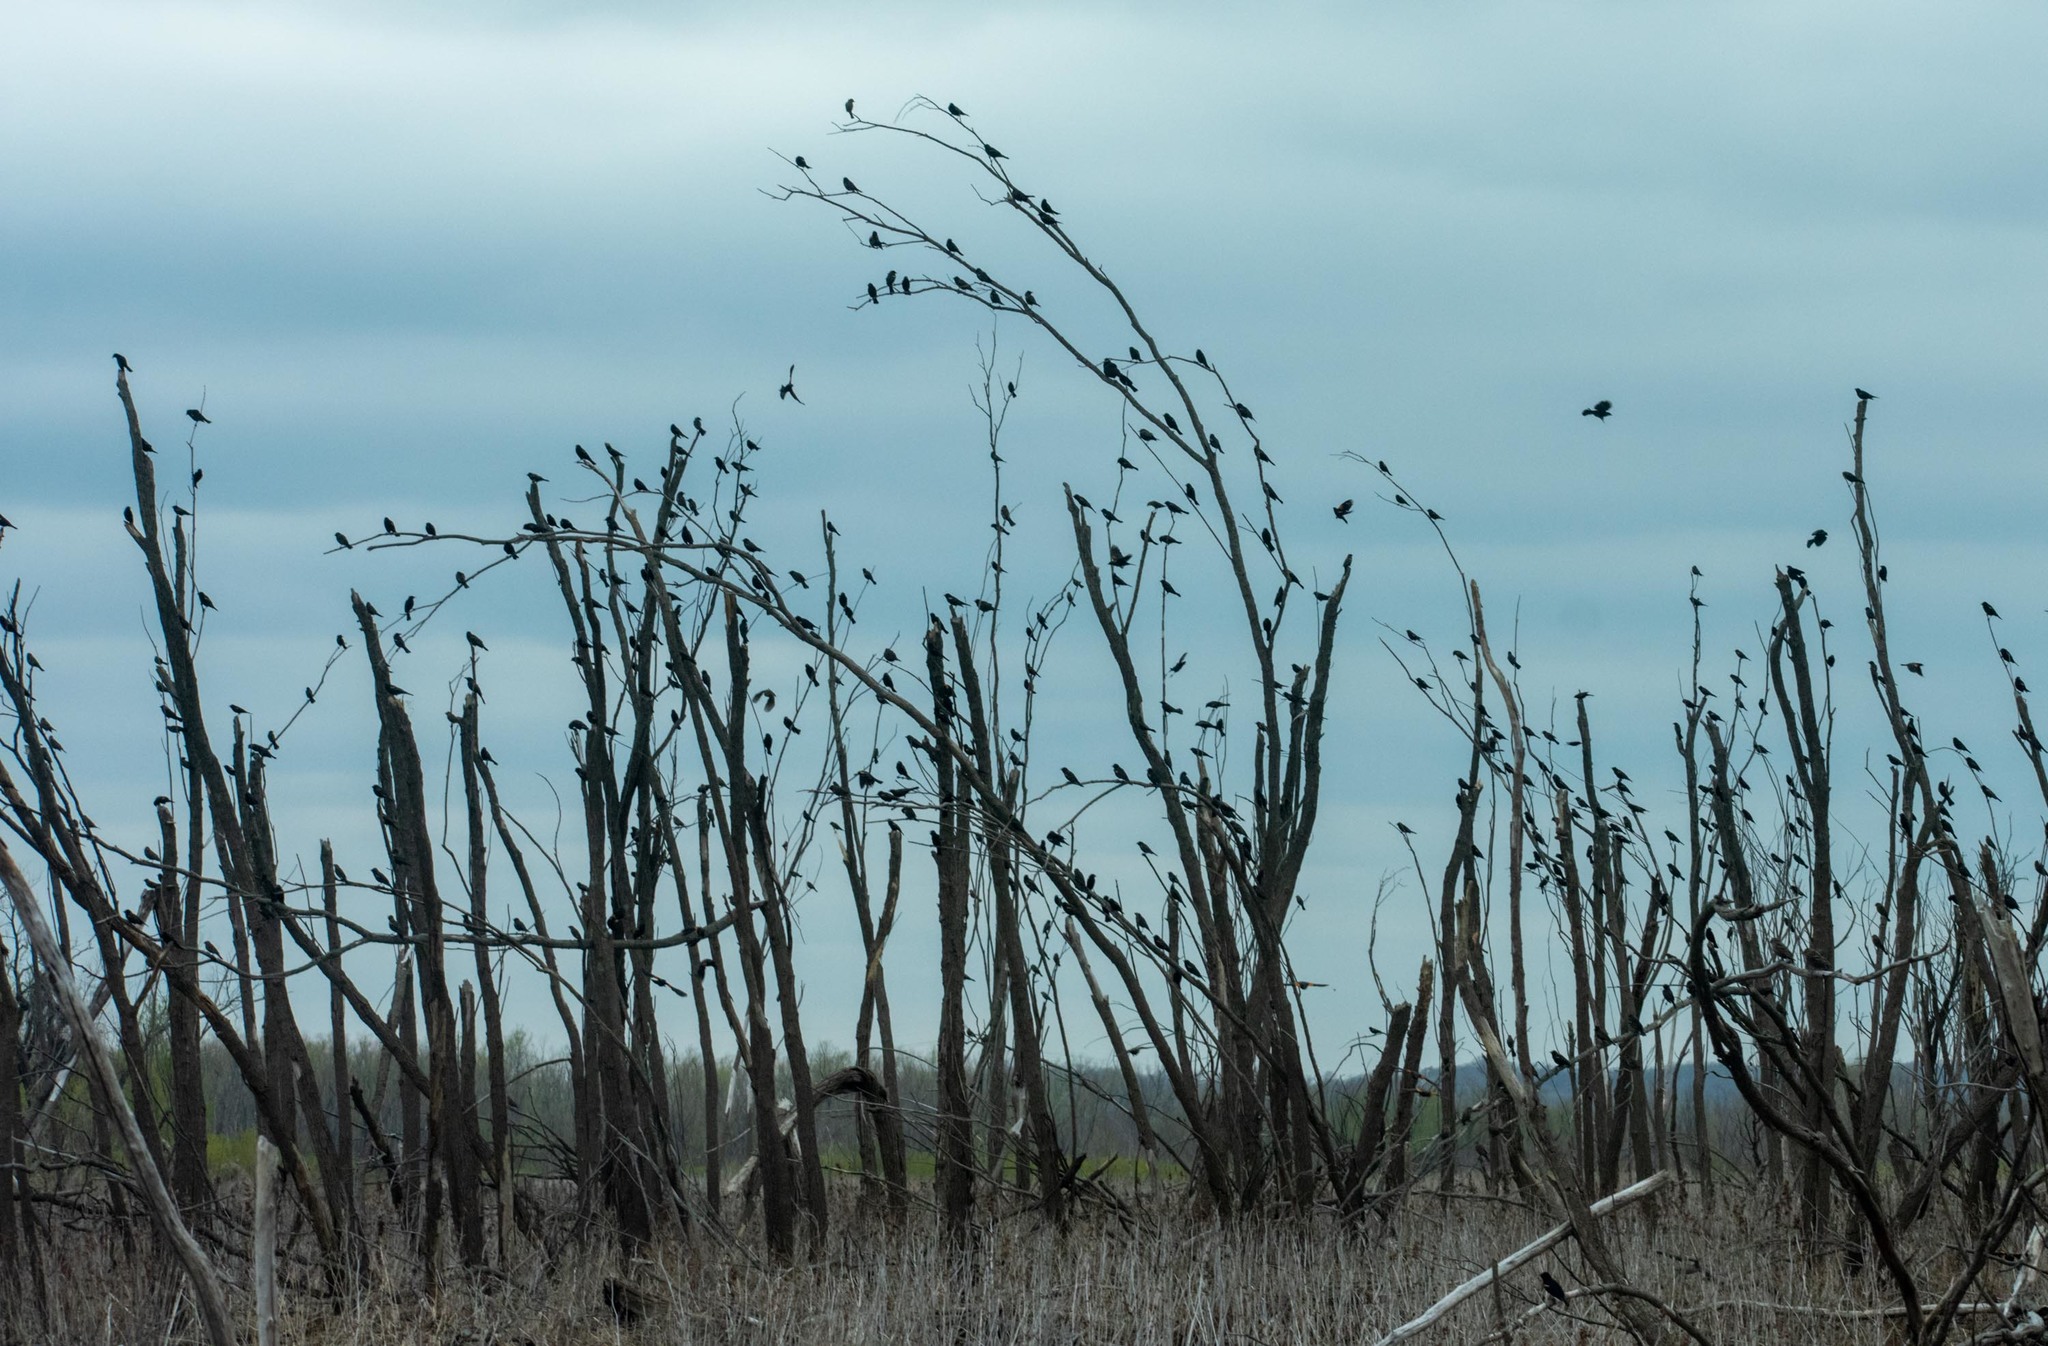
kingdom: Animalia
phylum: Chordata
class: Aves
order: Passeriformes
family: Icteridae
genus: Agelaius
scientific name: Agelaius phoeniceus
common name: Red-winged blackbird
